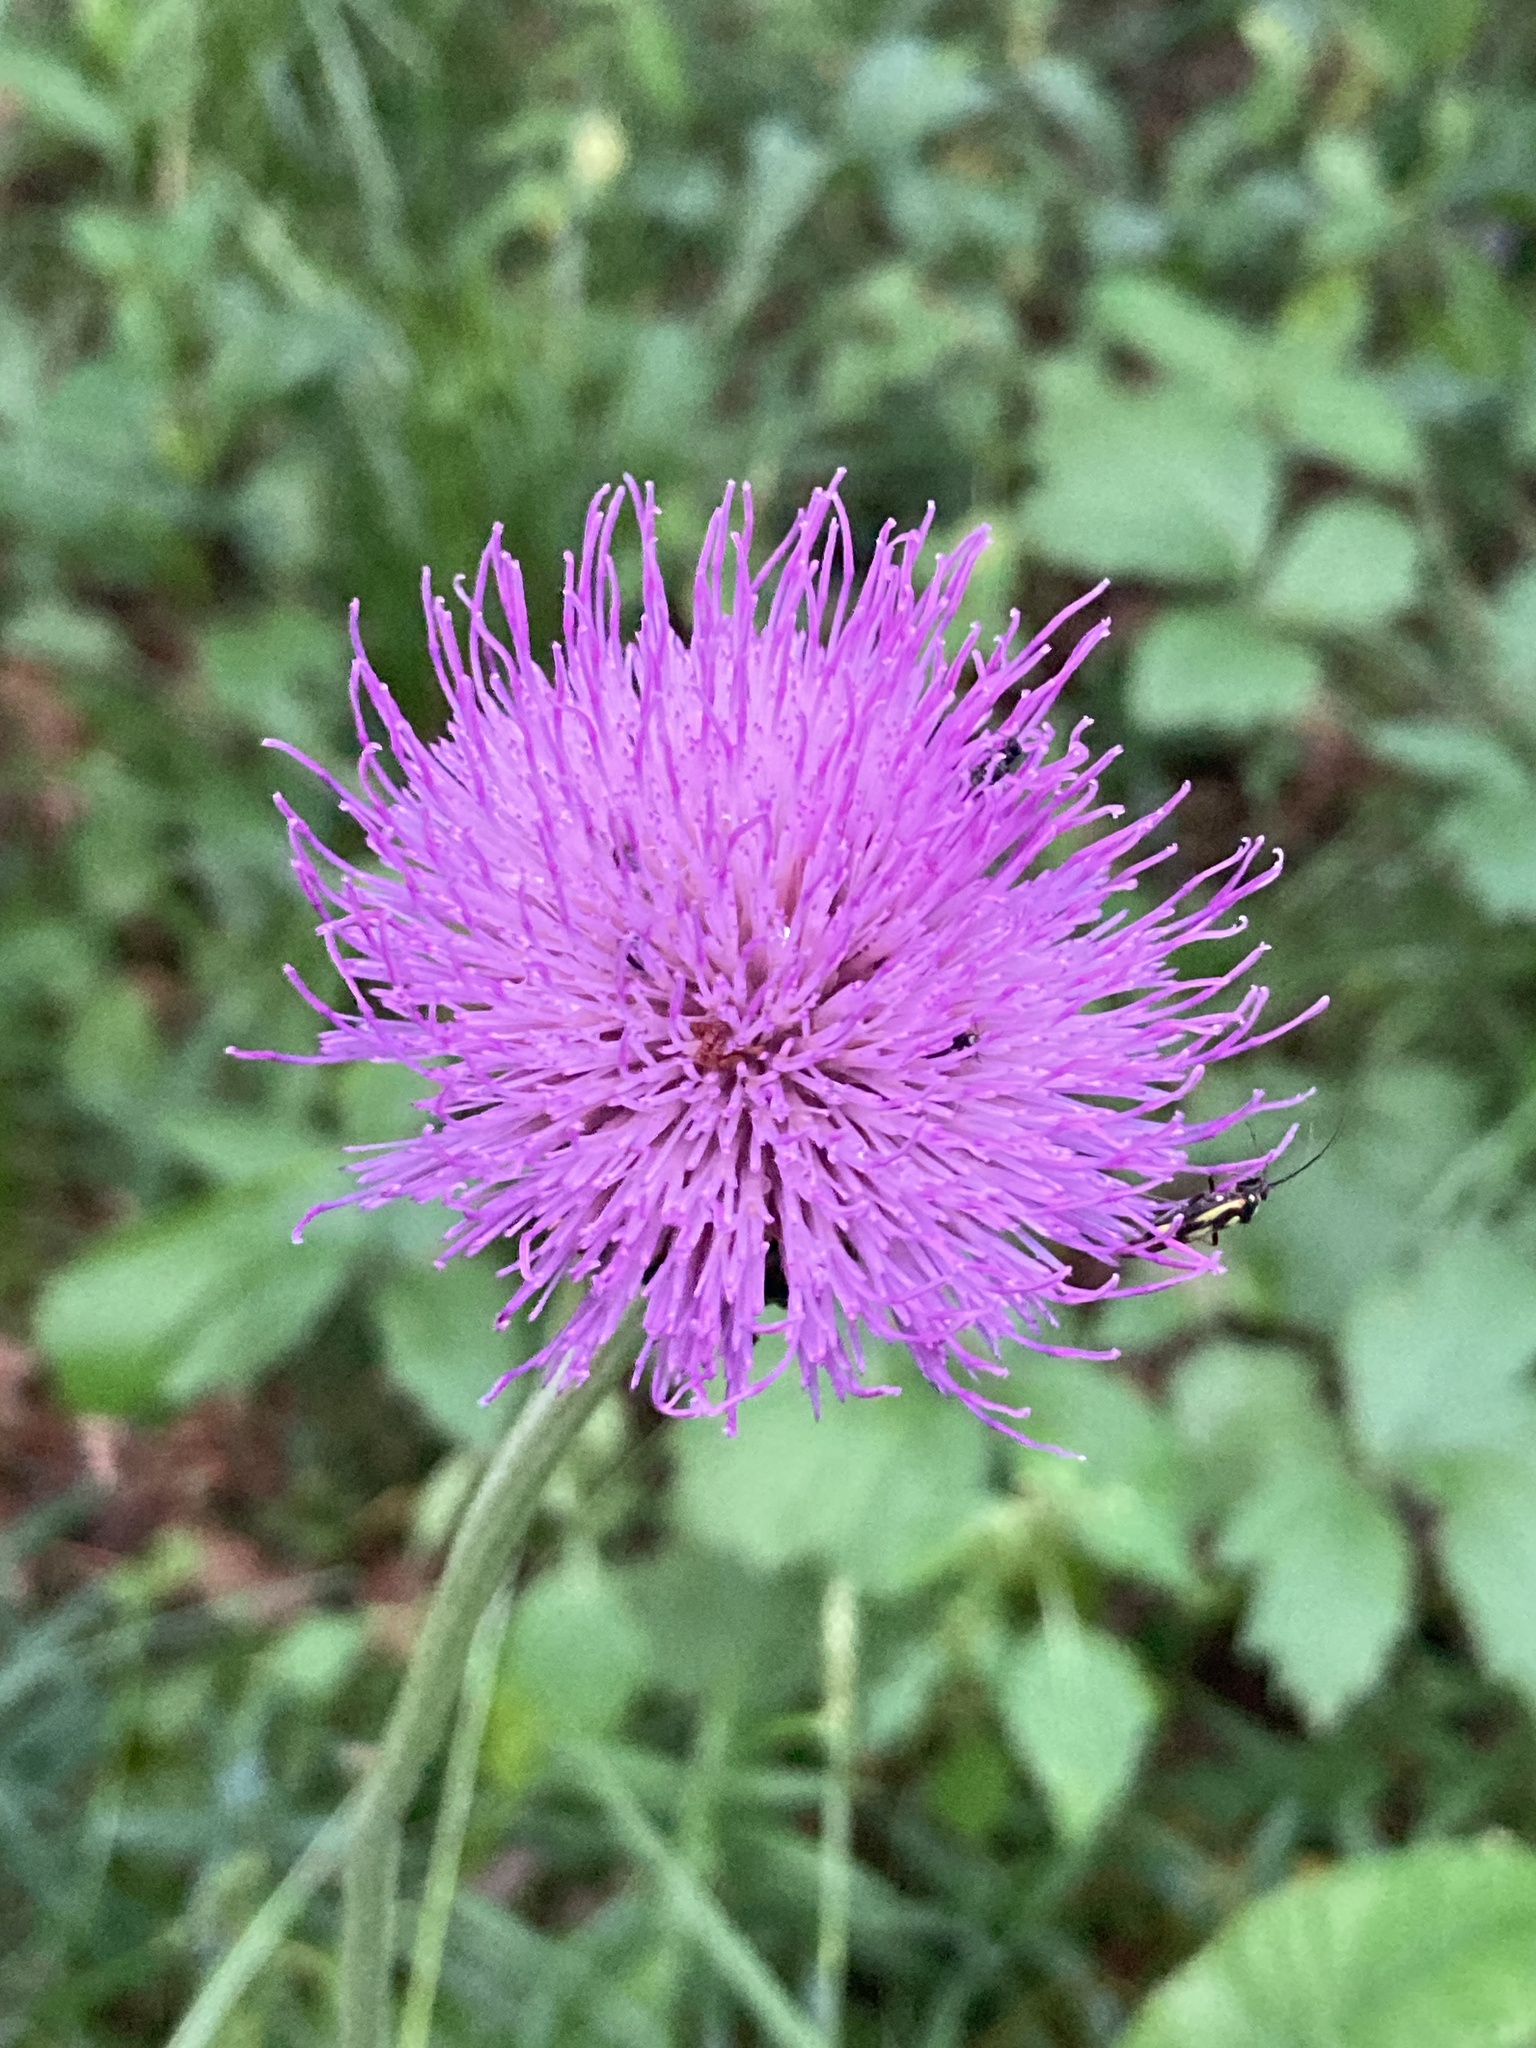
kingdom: Plantae
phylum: Tracheophyta
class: Magnoliopsida
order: Asterales
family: Asteraceae
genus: Cirsium
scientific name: Cirsium heterophyllum
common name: Melancholy thistle
